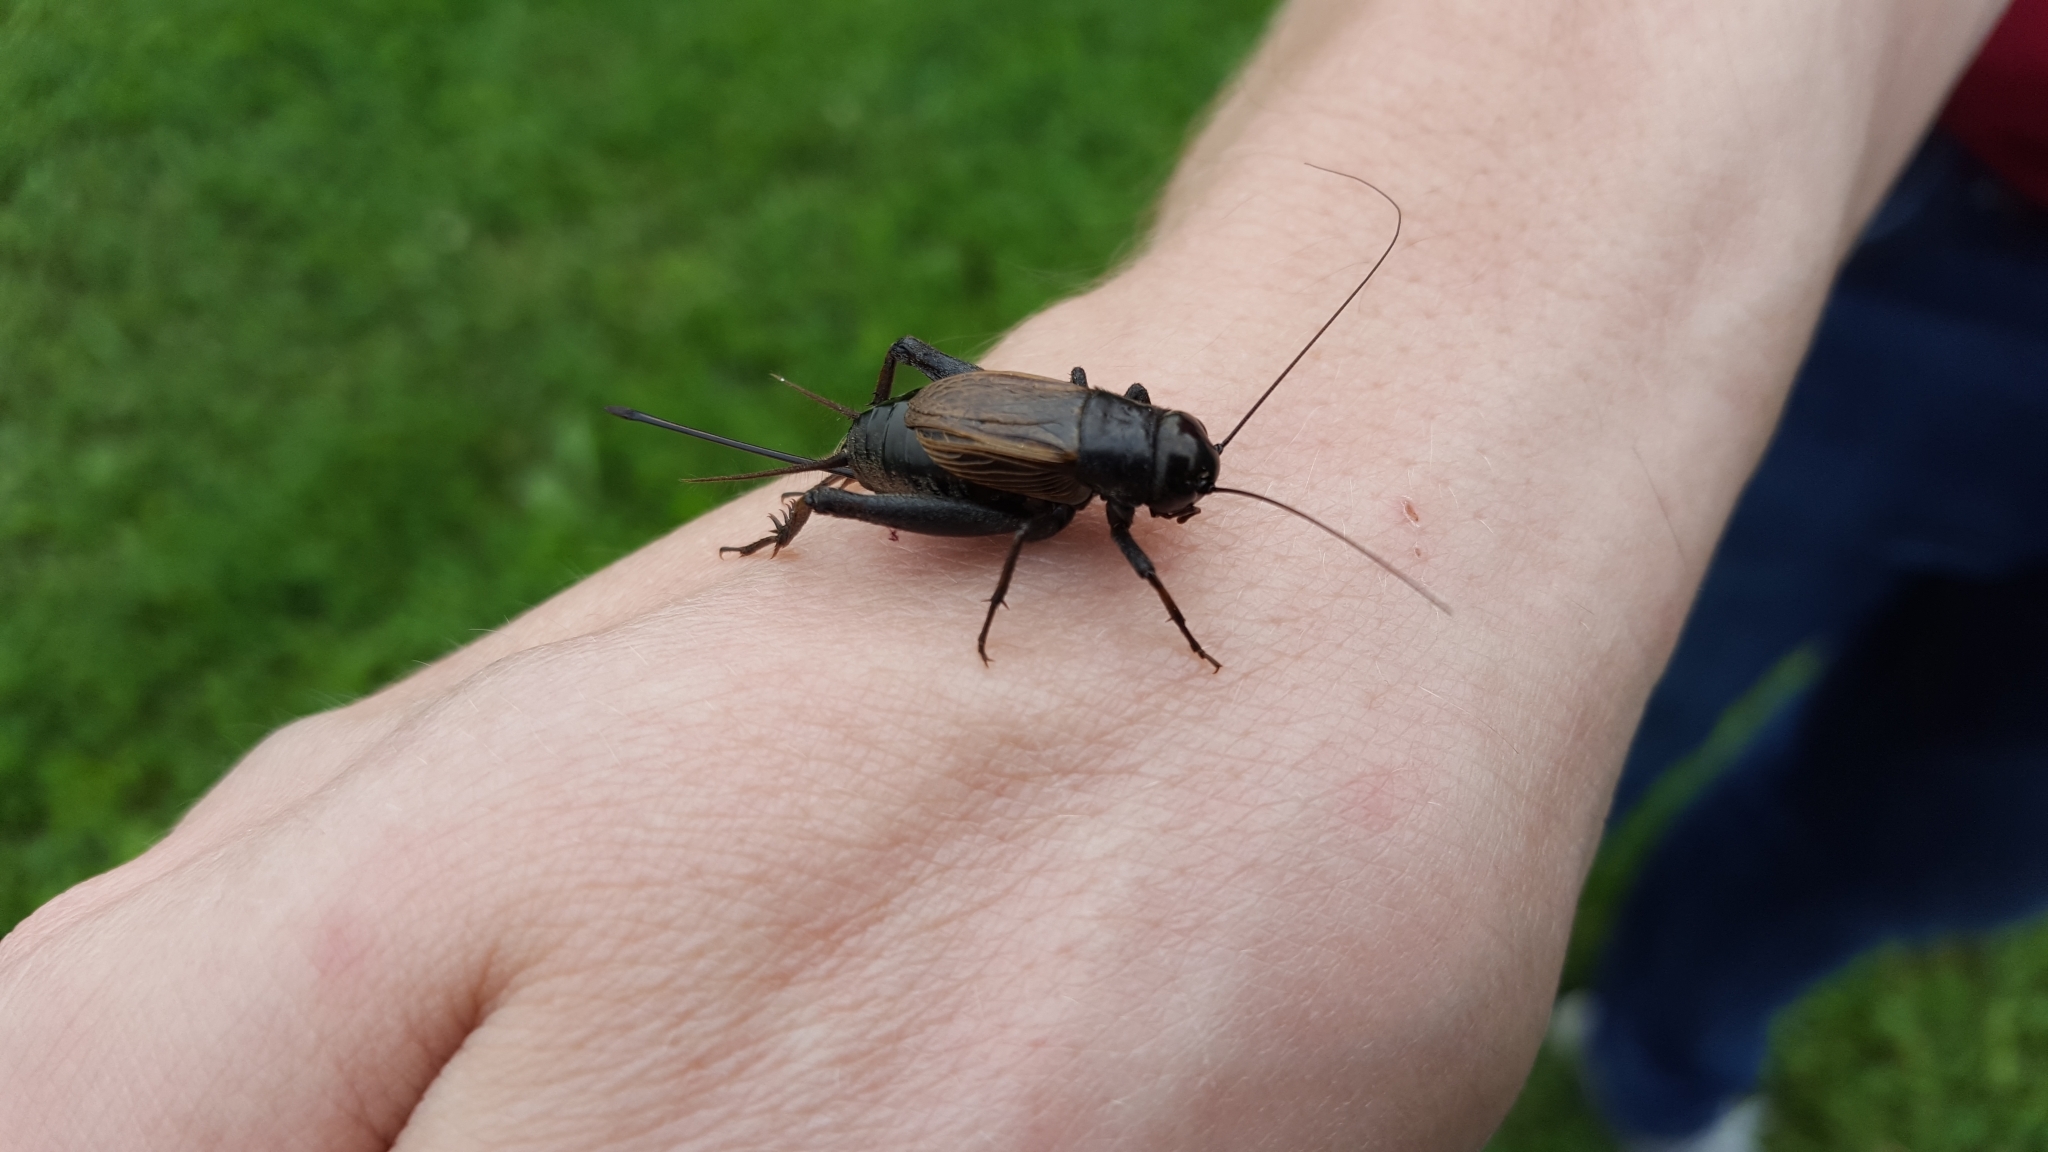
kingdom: Animalia
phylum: Arthropoda
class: Insecta
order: Orthoptera
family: Gryllidae
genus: Gryllus
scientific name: Gryllus pennsylvanicus
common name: Fall field cricket
